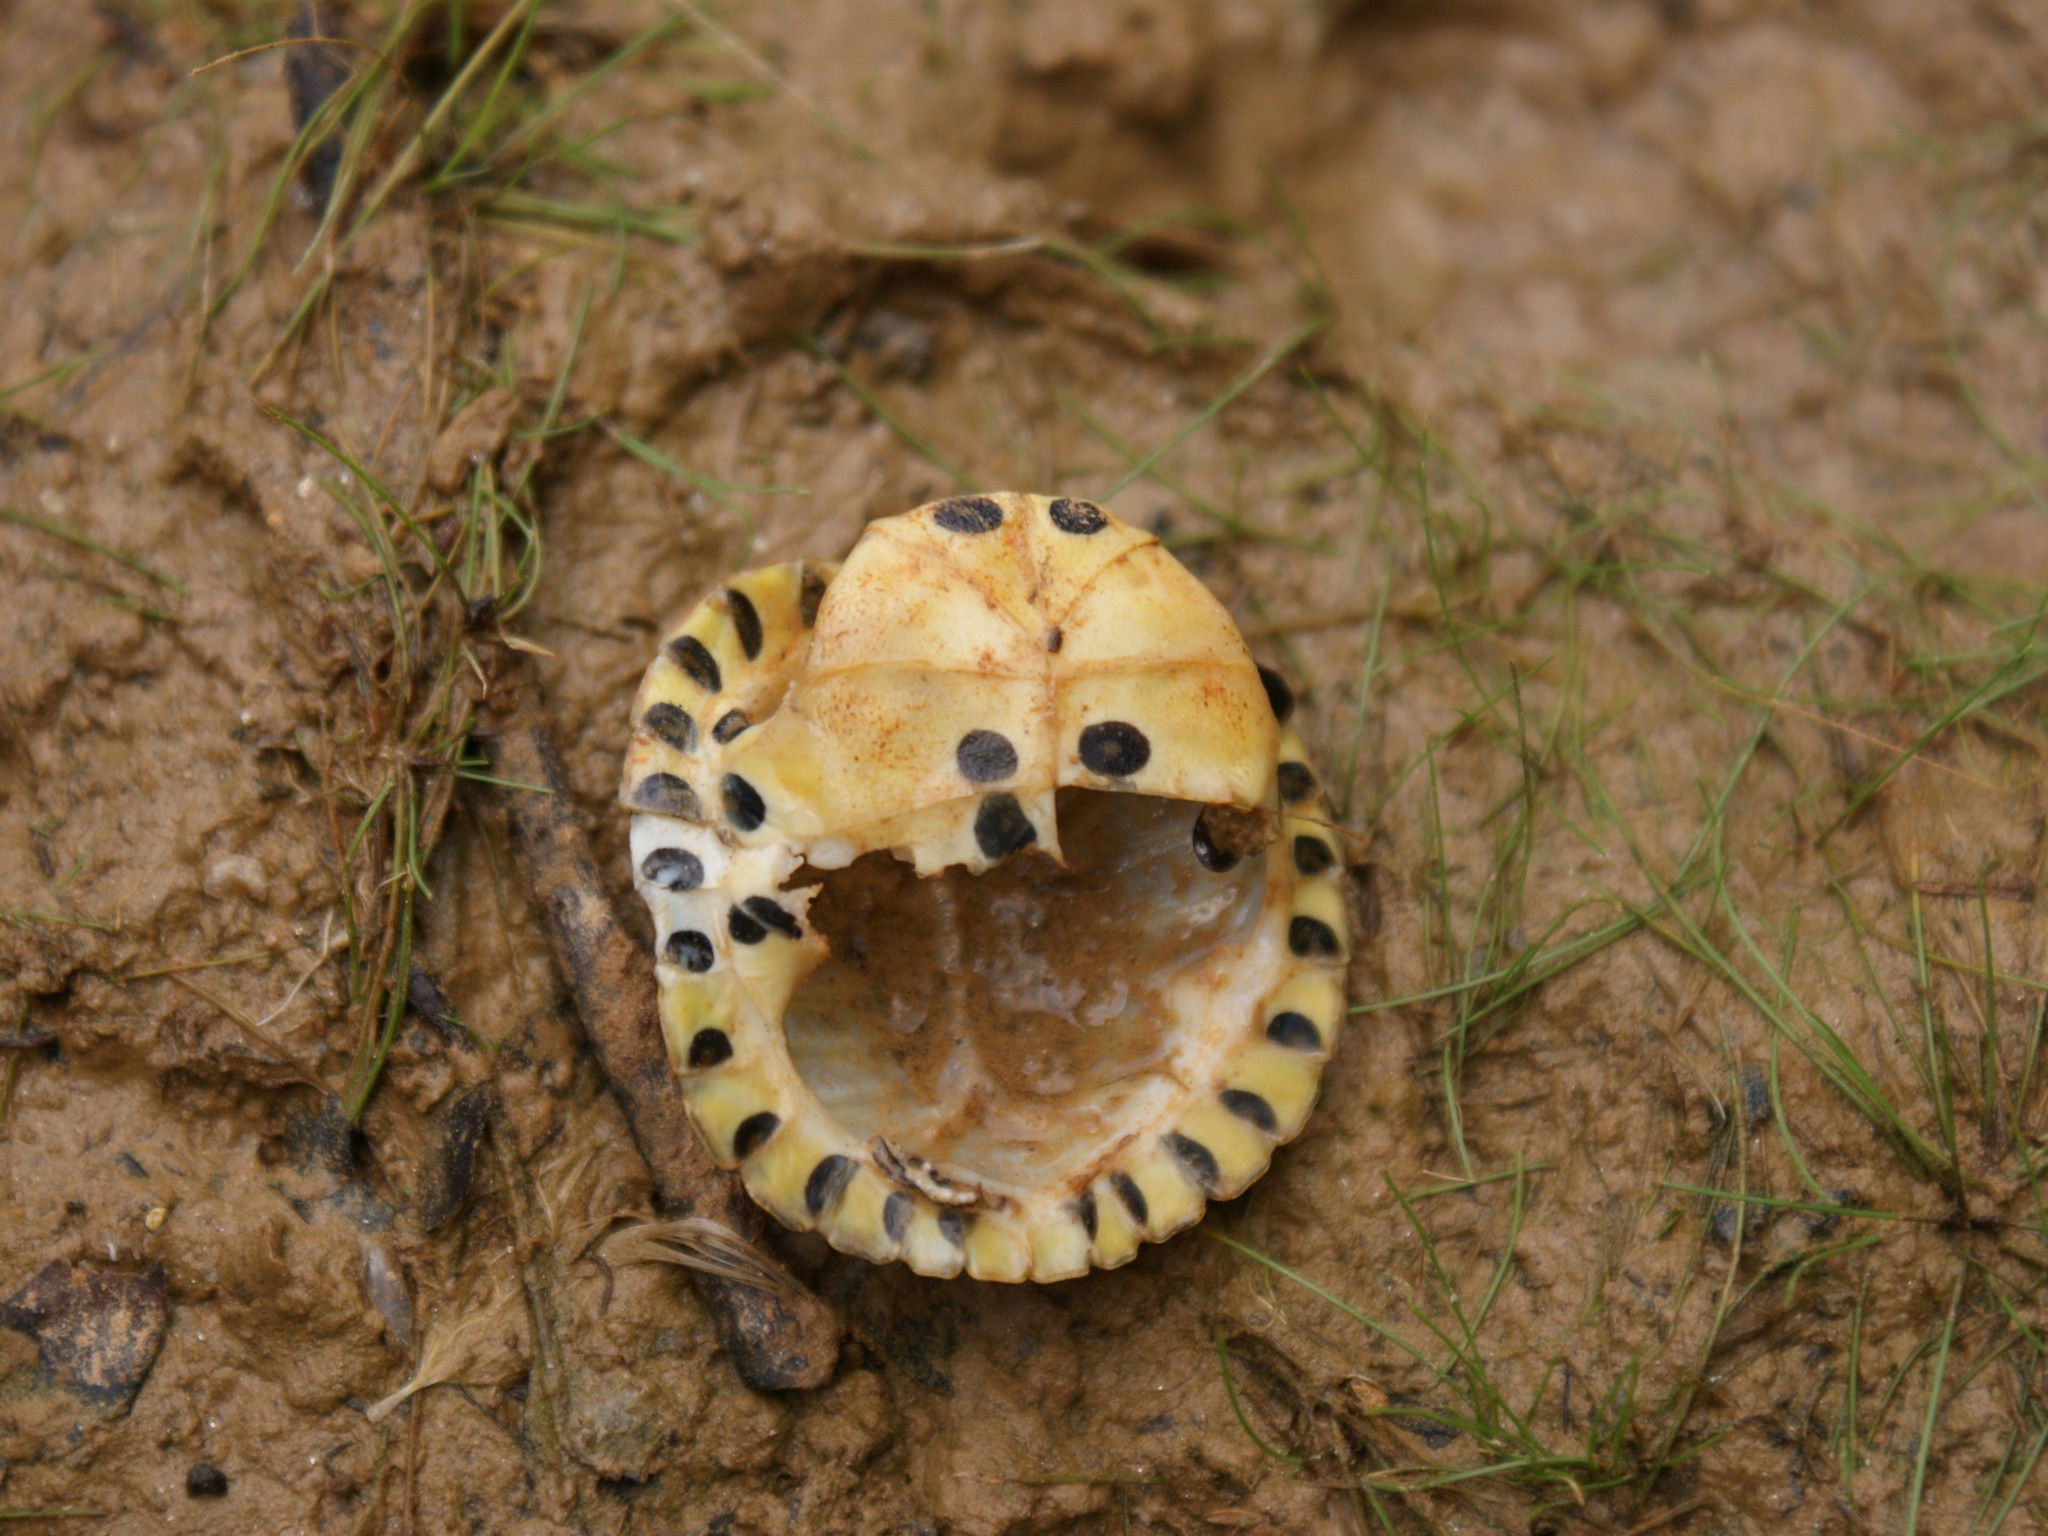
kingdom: Animalia
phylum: Chordata
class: Testudines
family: Emydidae
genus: Trachemys
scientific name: Trachemys scripta
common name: Slider
